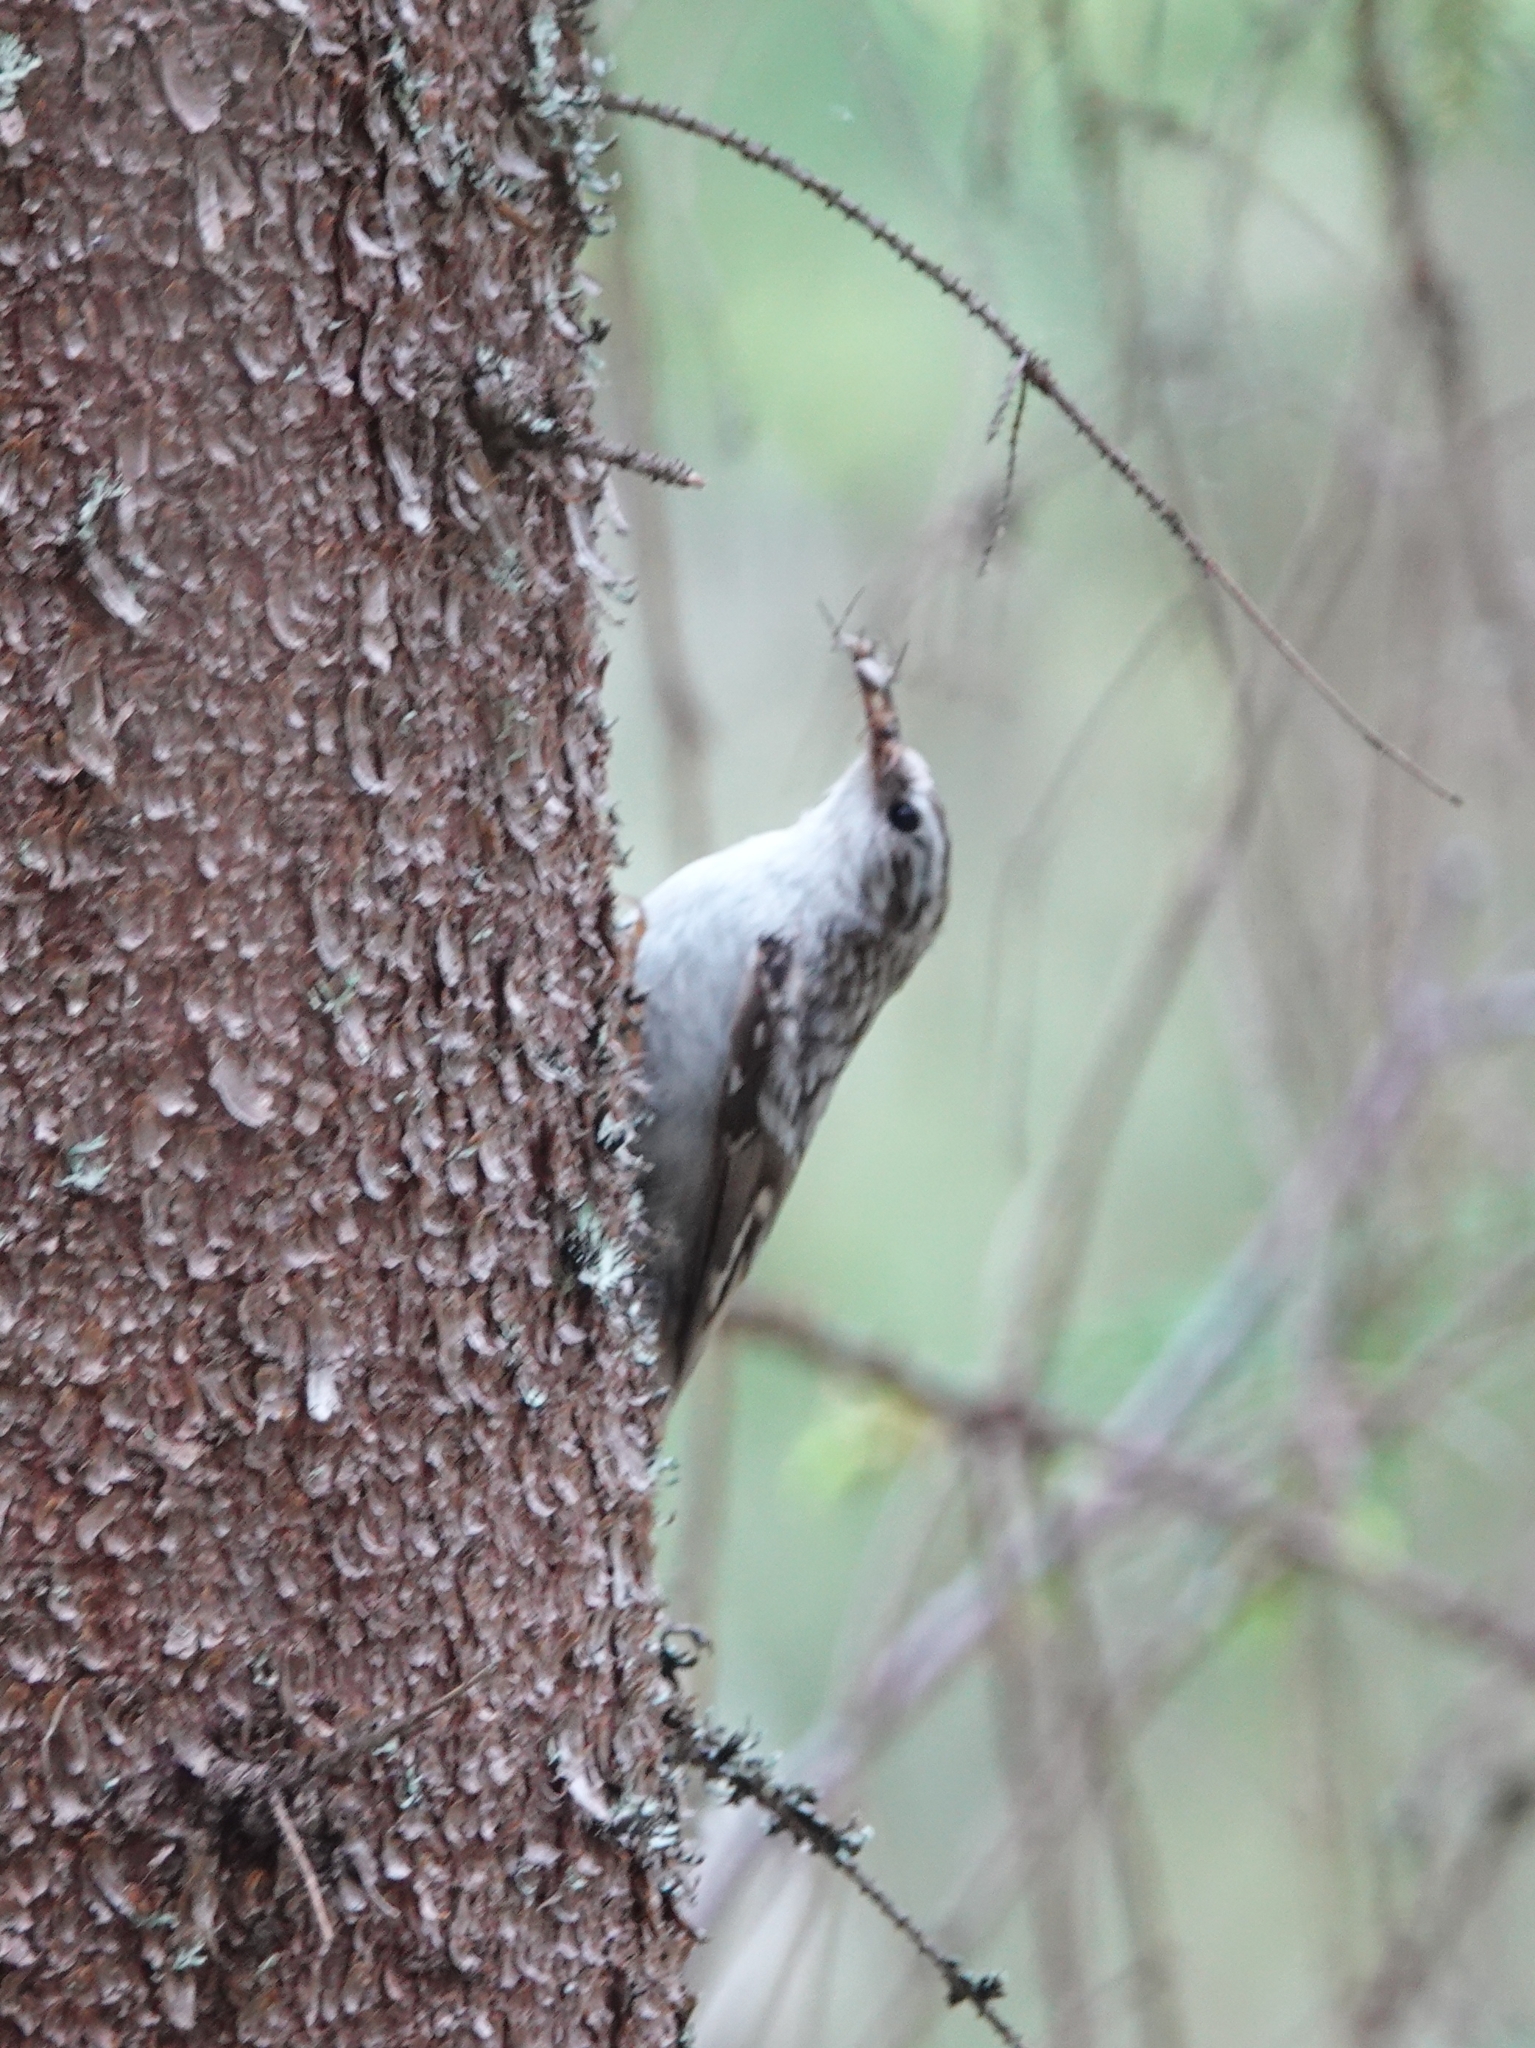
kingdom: Animalia
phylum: Chordata
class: Aves
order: Passeriformes
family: Certhiidae
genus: Certhia
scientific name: Certhia familiaris
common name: Eurasian treecreeper
